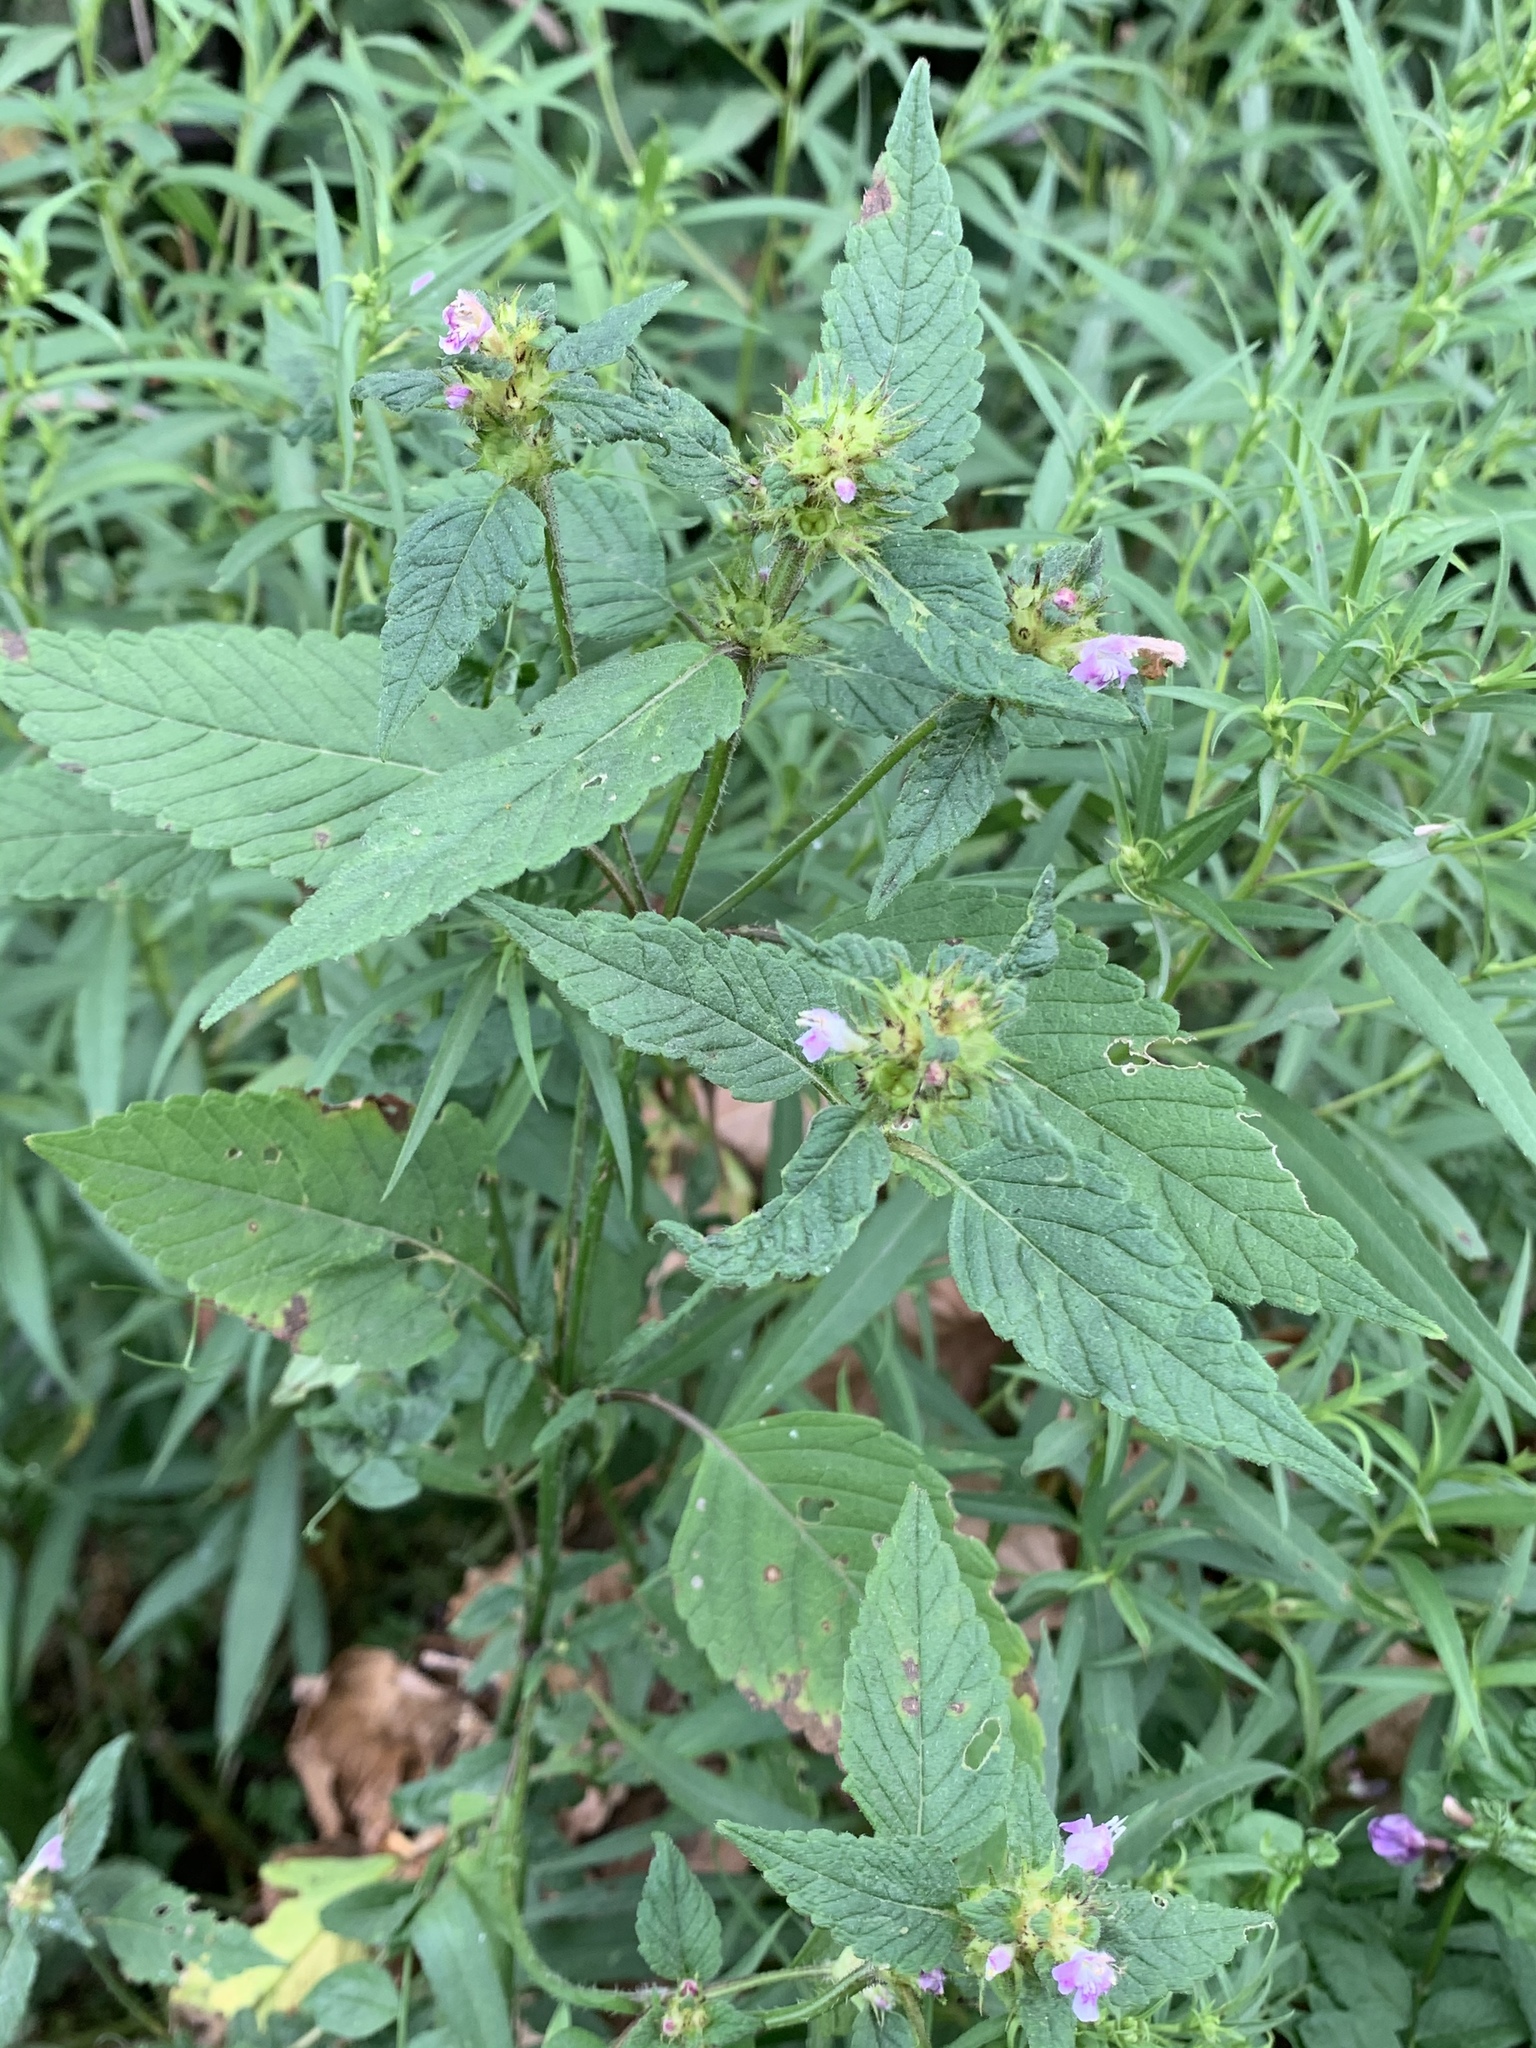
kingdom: Plantae
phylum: Tracheophyta
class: Magnoliopsida
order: Lamiales
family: Lamiaceae
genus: Galeopsis
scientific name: Galeopsis tetrahit
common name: Common hemp-nettle
